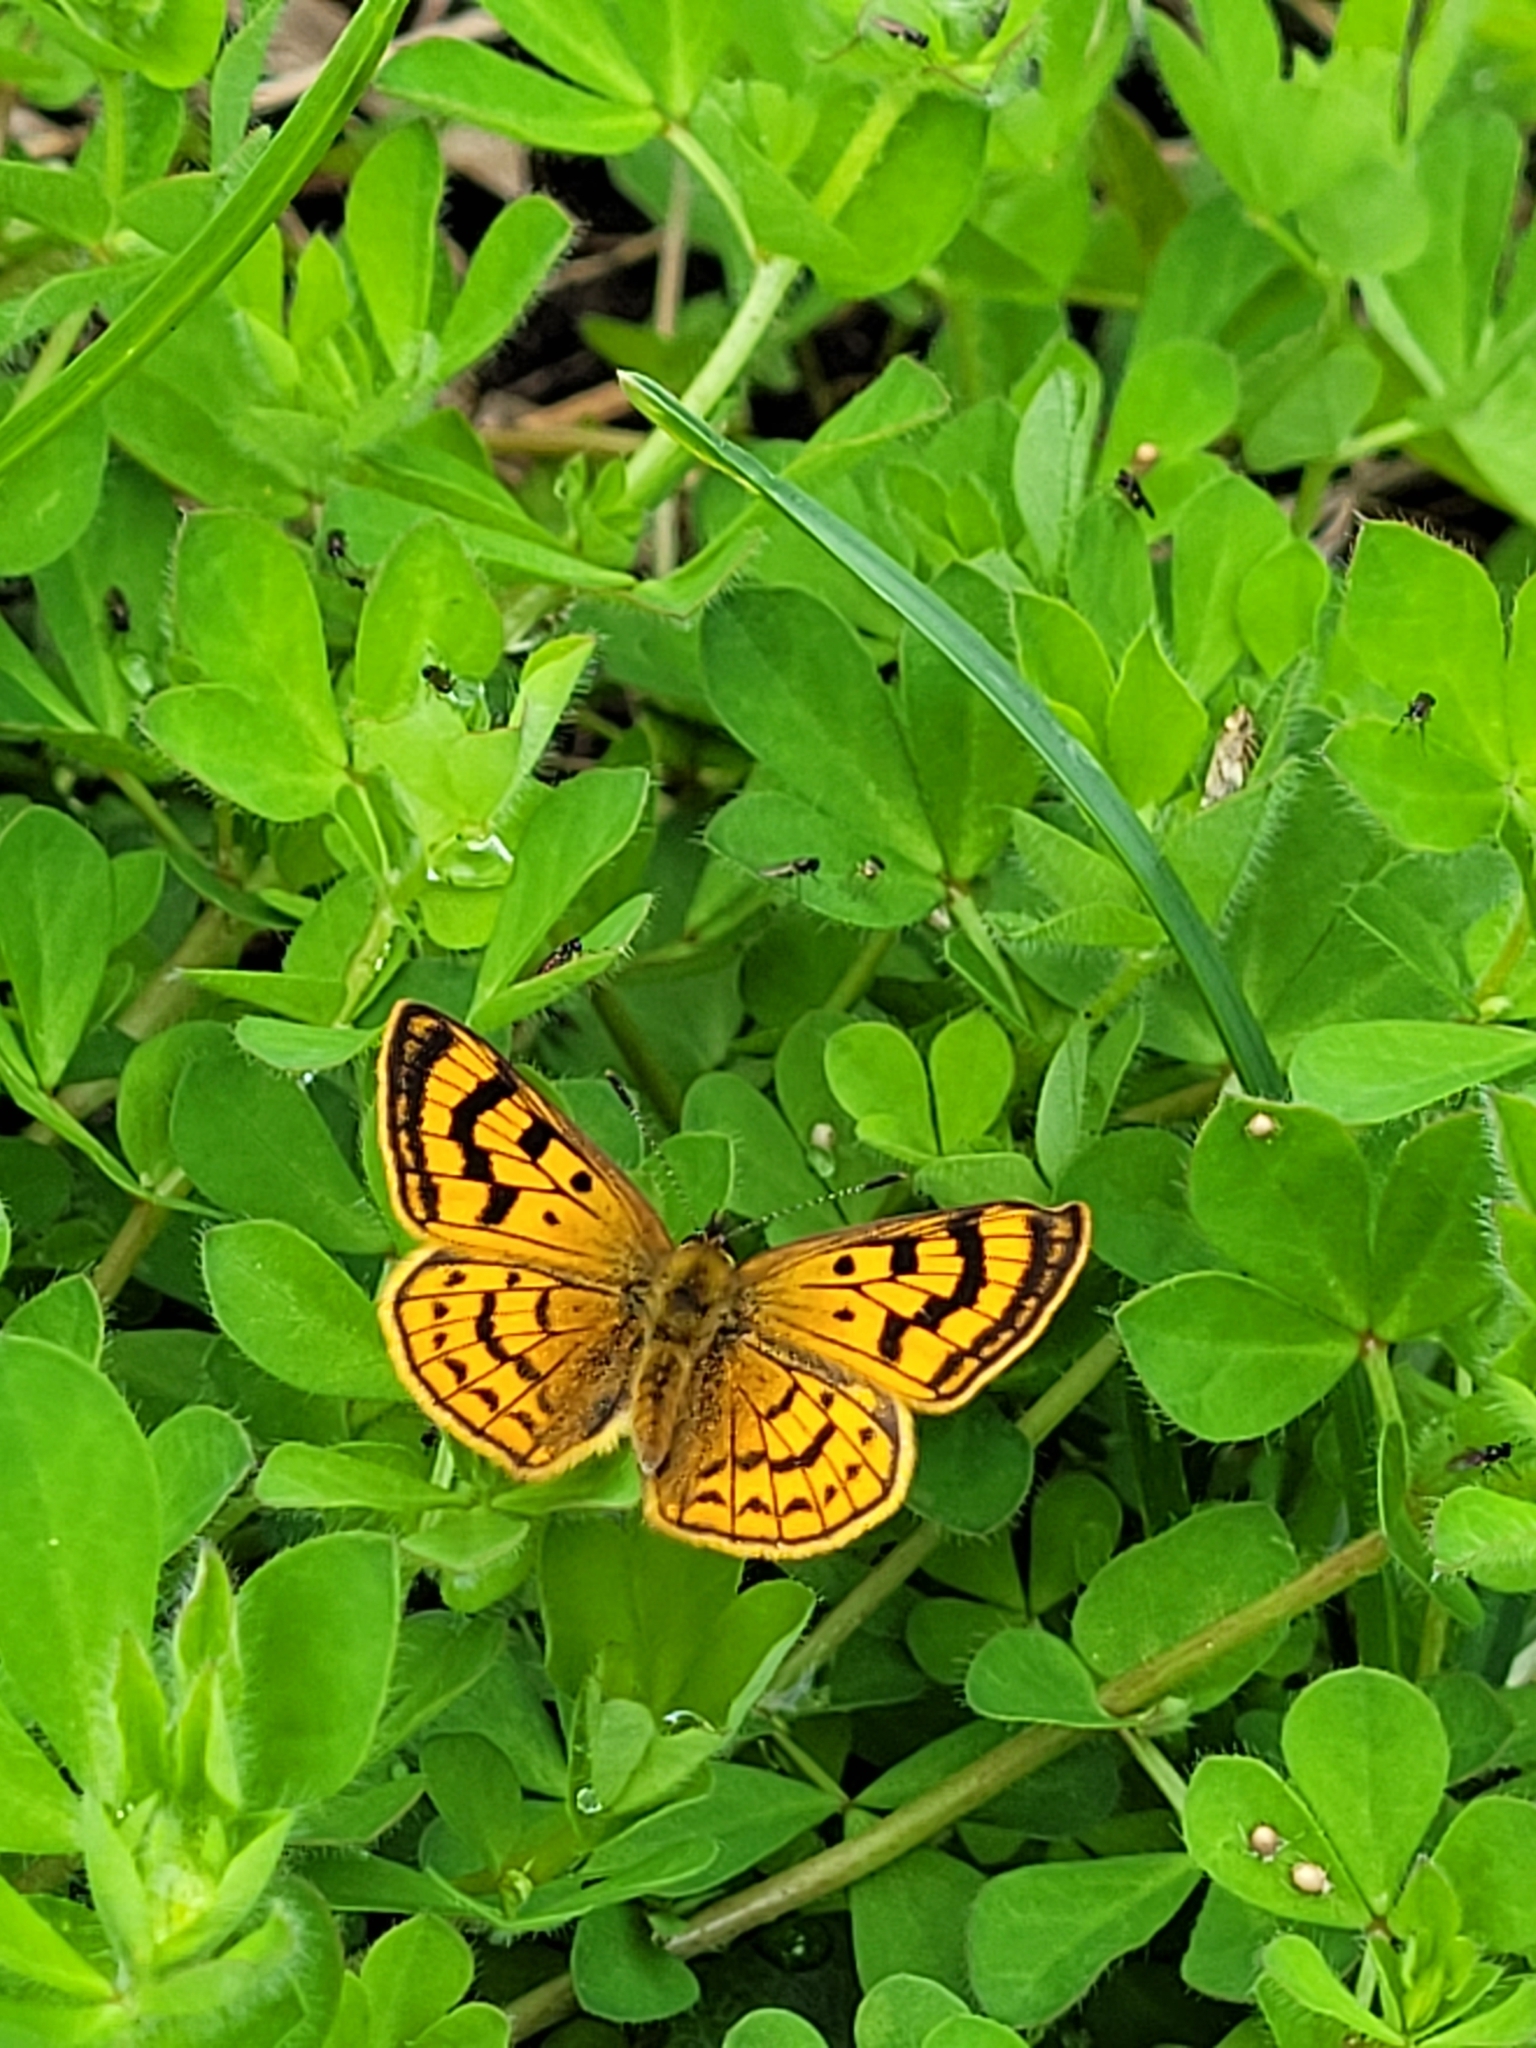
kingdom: Animalia
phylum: Arthropoda
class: Insecta
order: Lepidoptera
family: Lycaenidae
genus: Lycaena
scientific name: Lycaena salustius
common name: North island coastal copper
